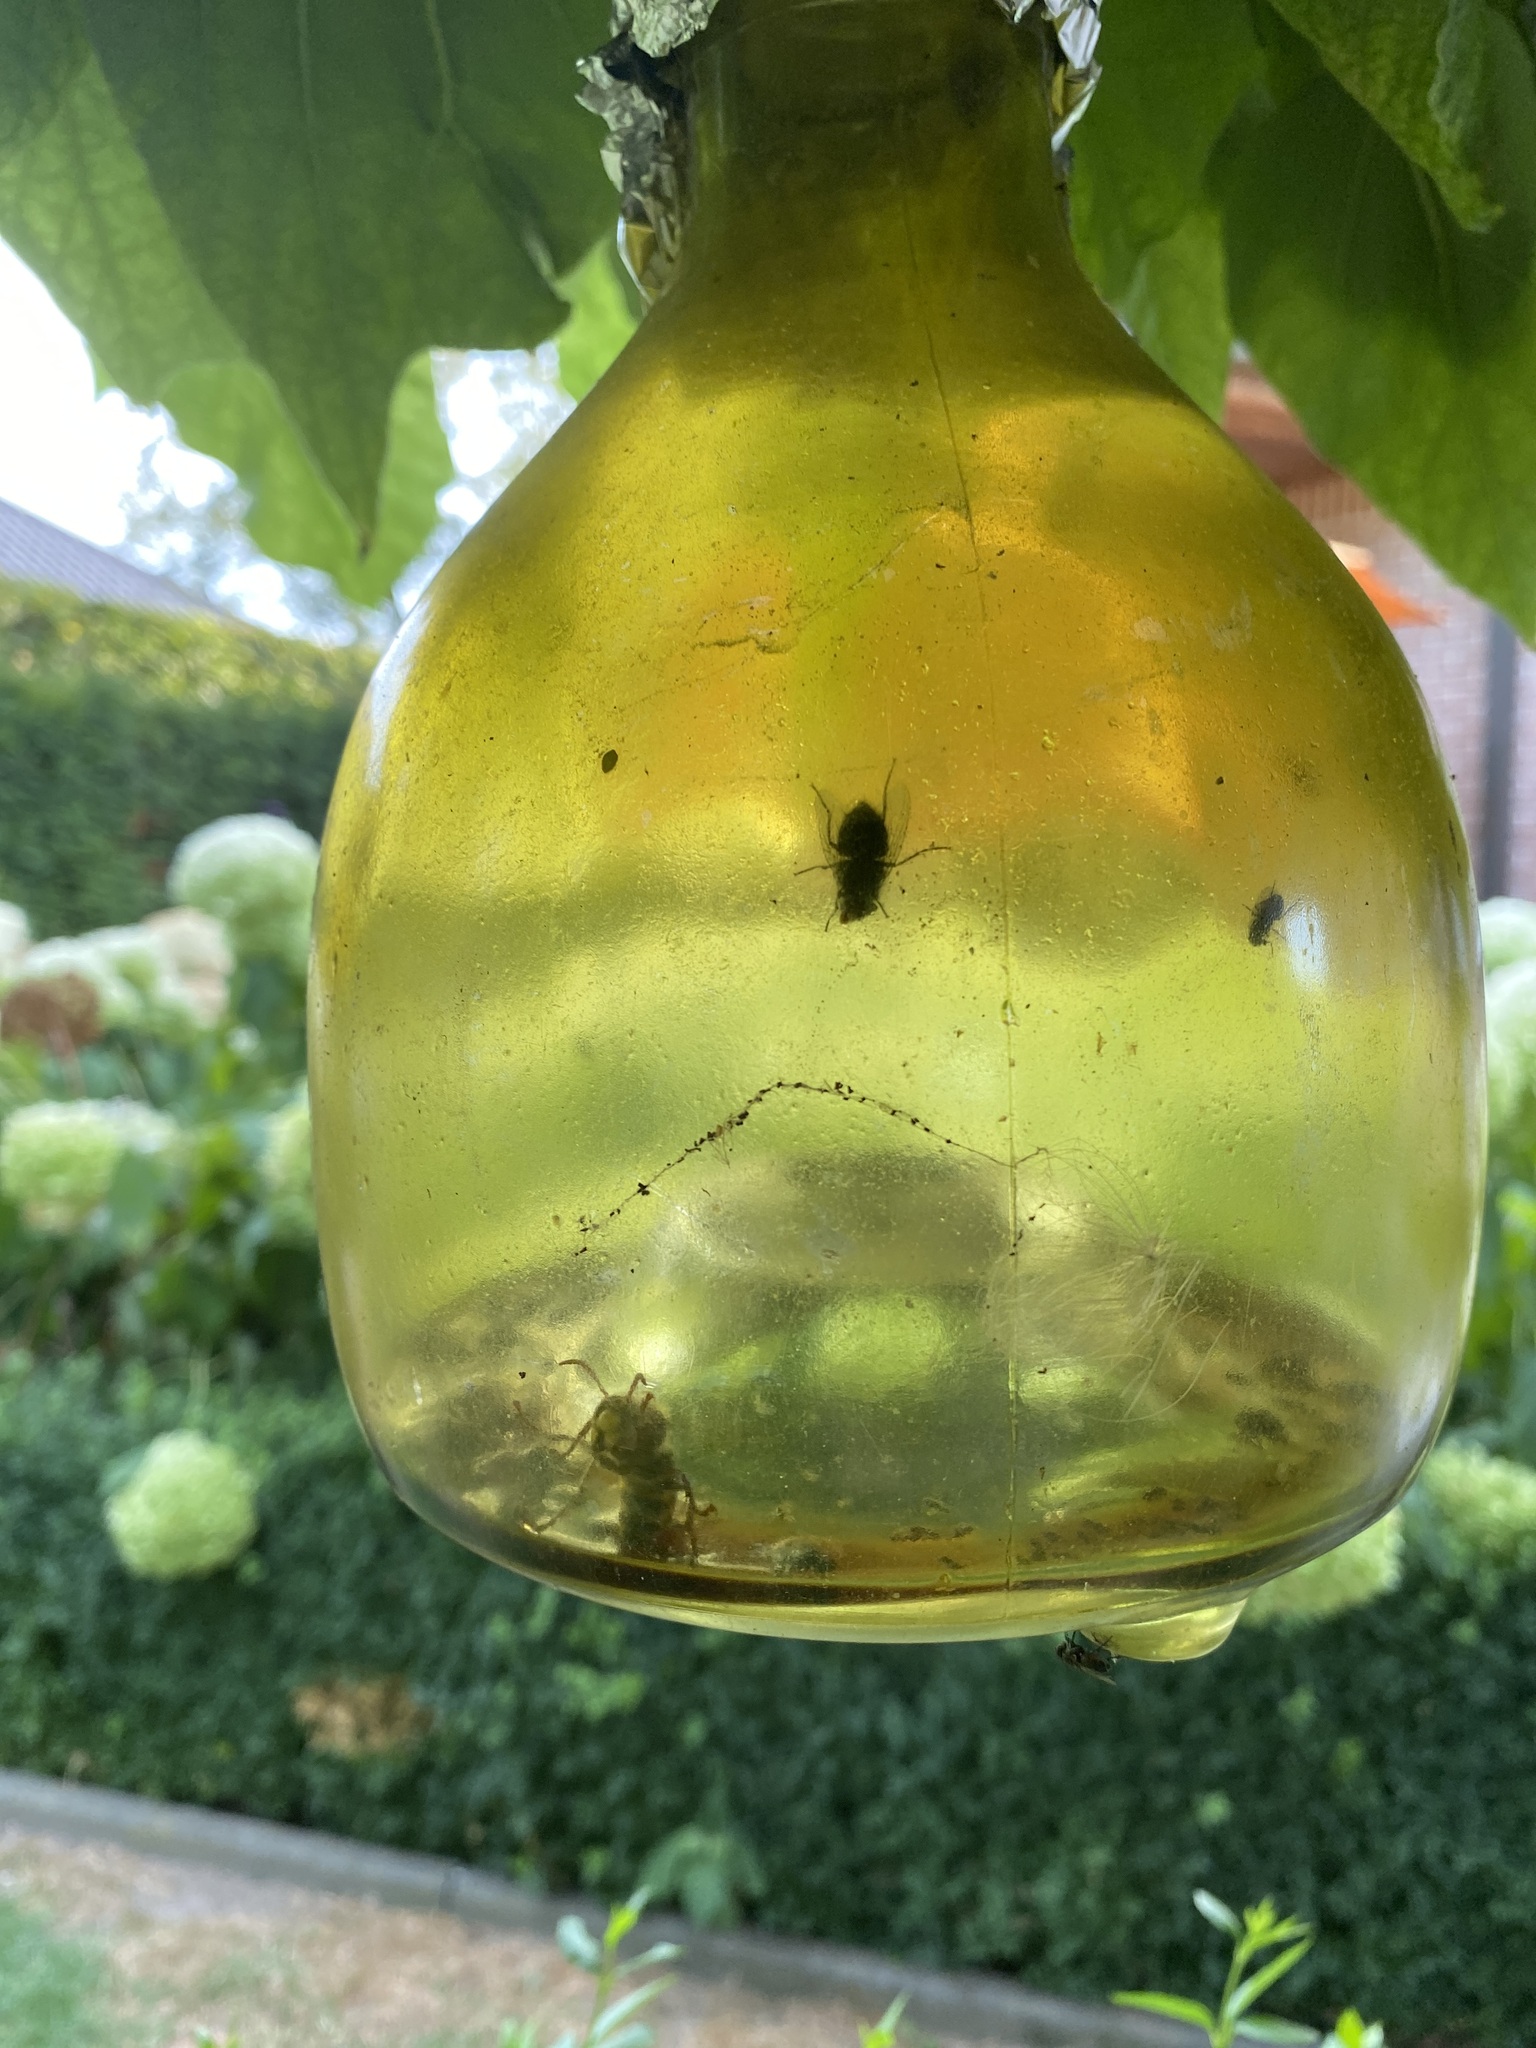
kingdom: Animalia
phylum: Arthropoda
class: Insecta
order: Hymenoptera
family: Vespidae
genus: Vespa
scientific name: Vespa crabro
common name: Hornet
